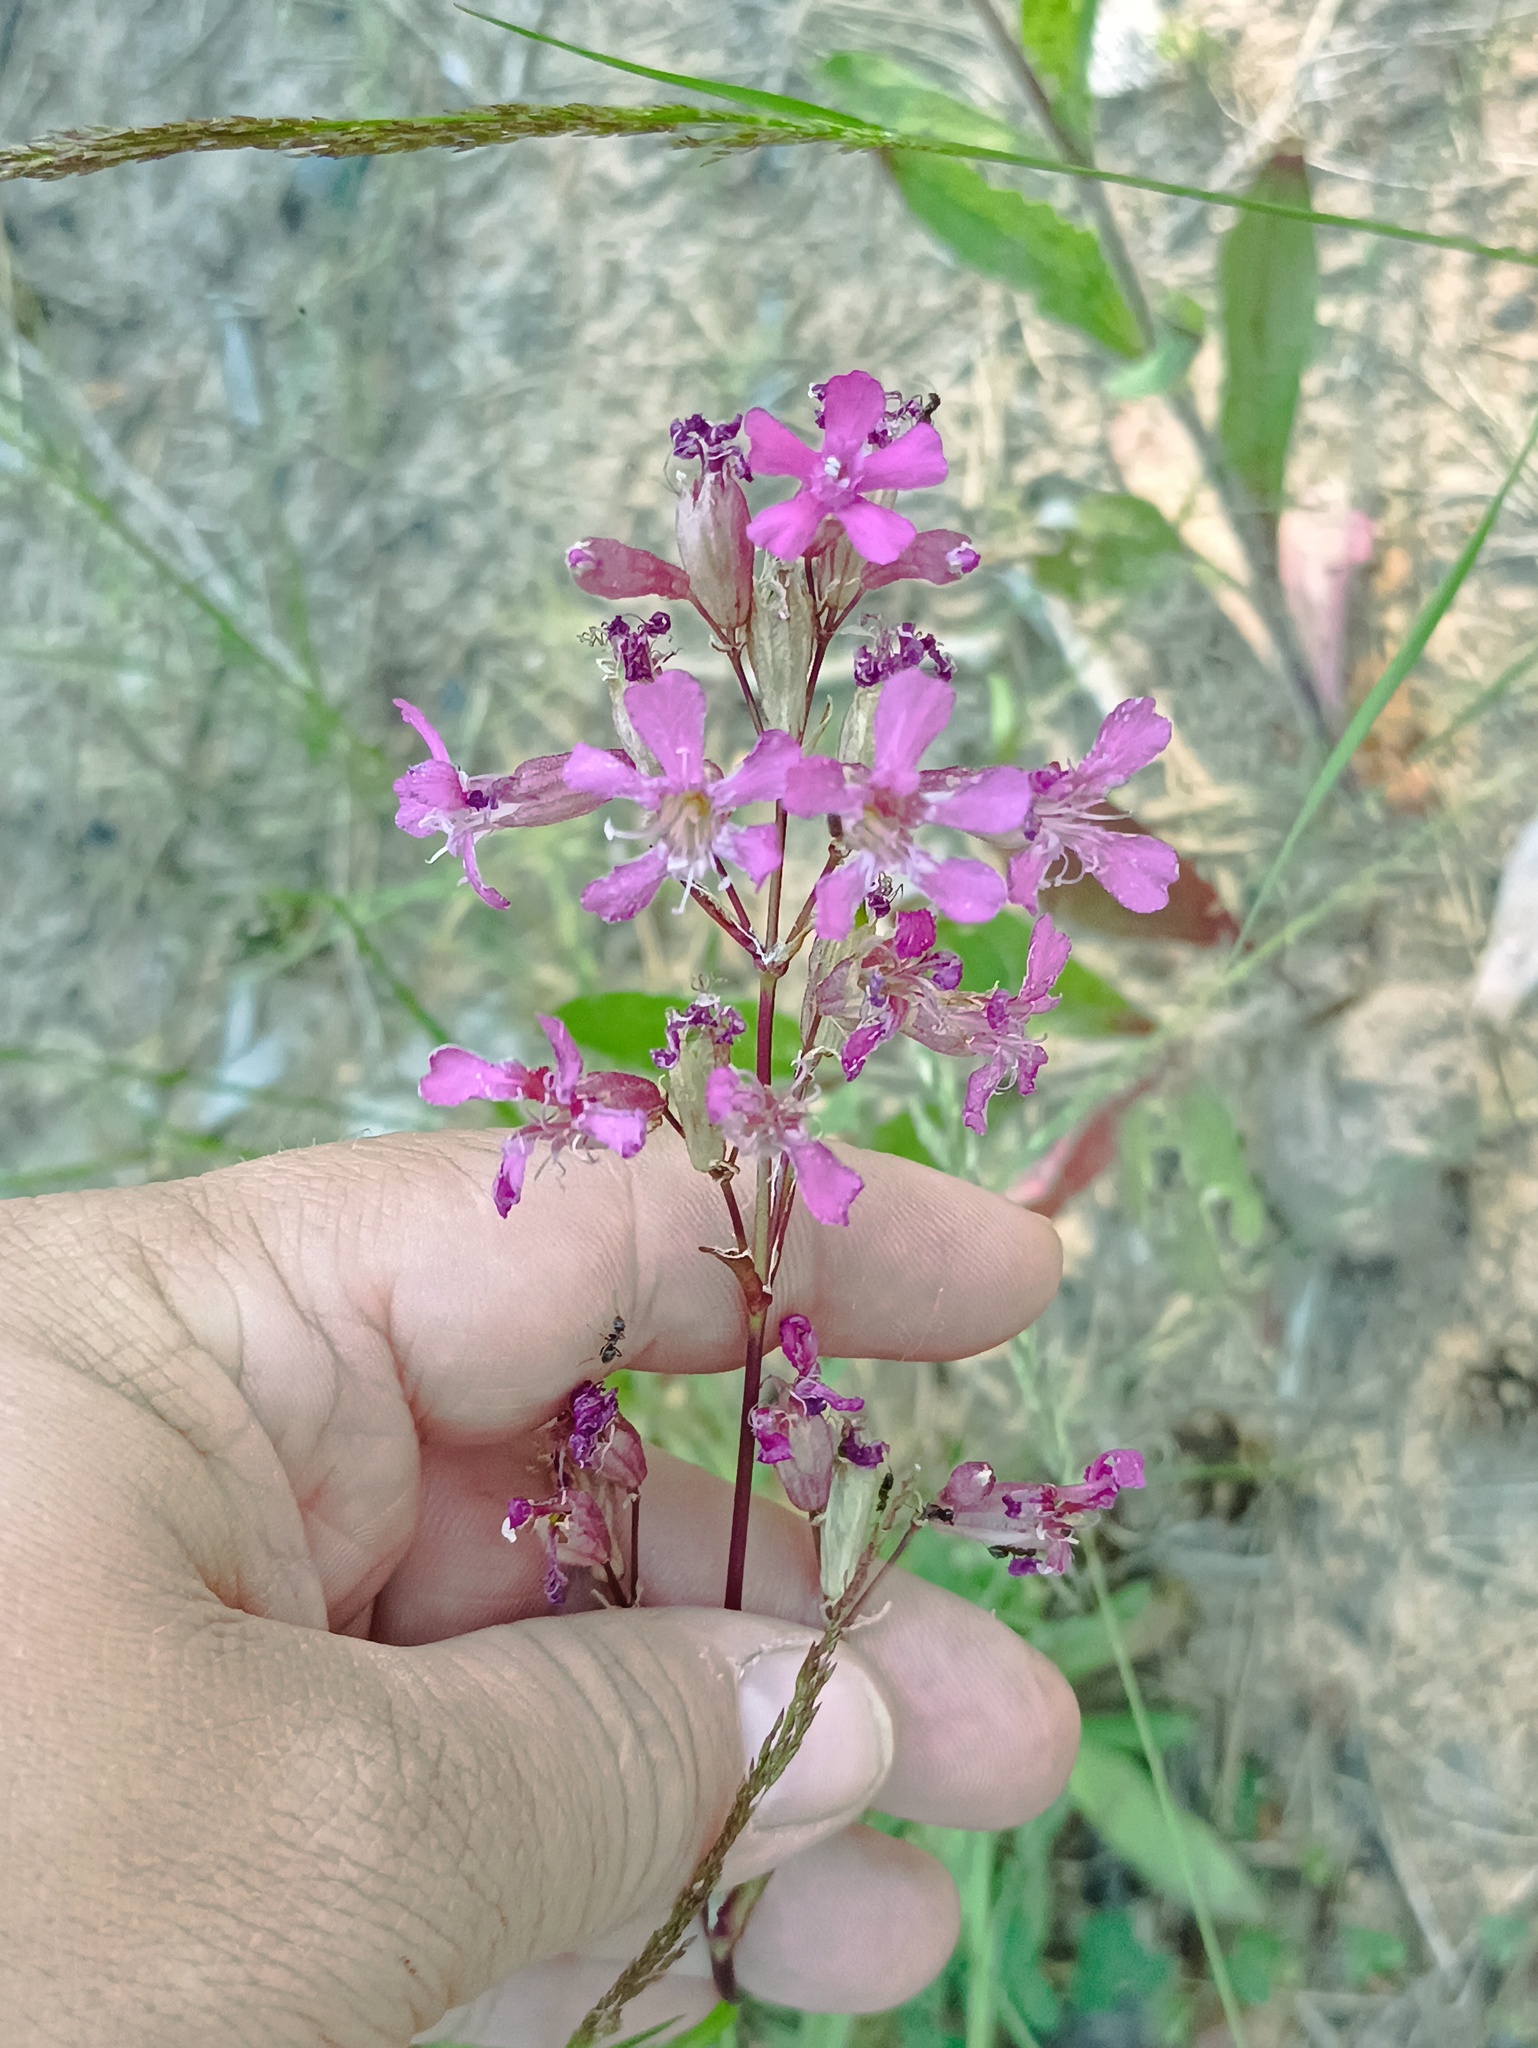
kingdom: Plantae
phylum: Tracheophyta
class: Magnoliopsida
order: Caryophyllales
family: Caryophyllaceae
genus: Viscaria
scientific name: Viscaria vulgaris
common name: Clammy campion
